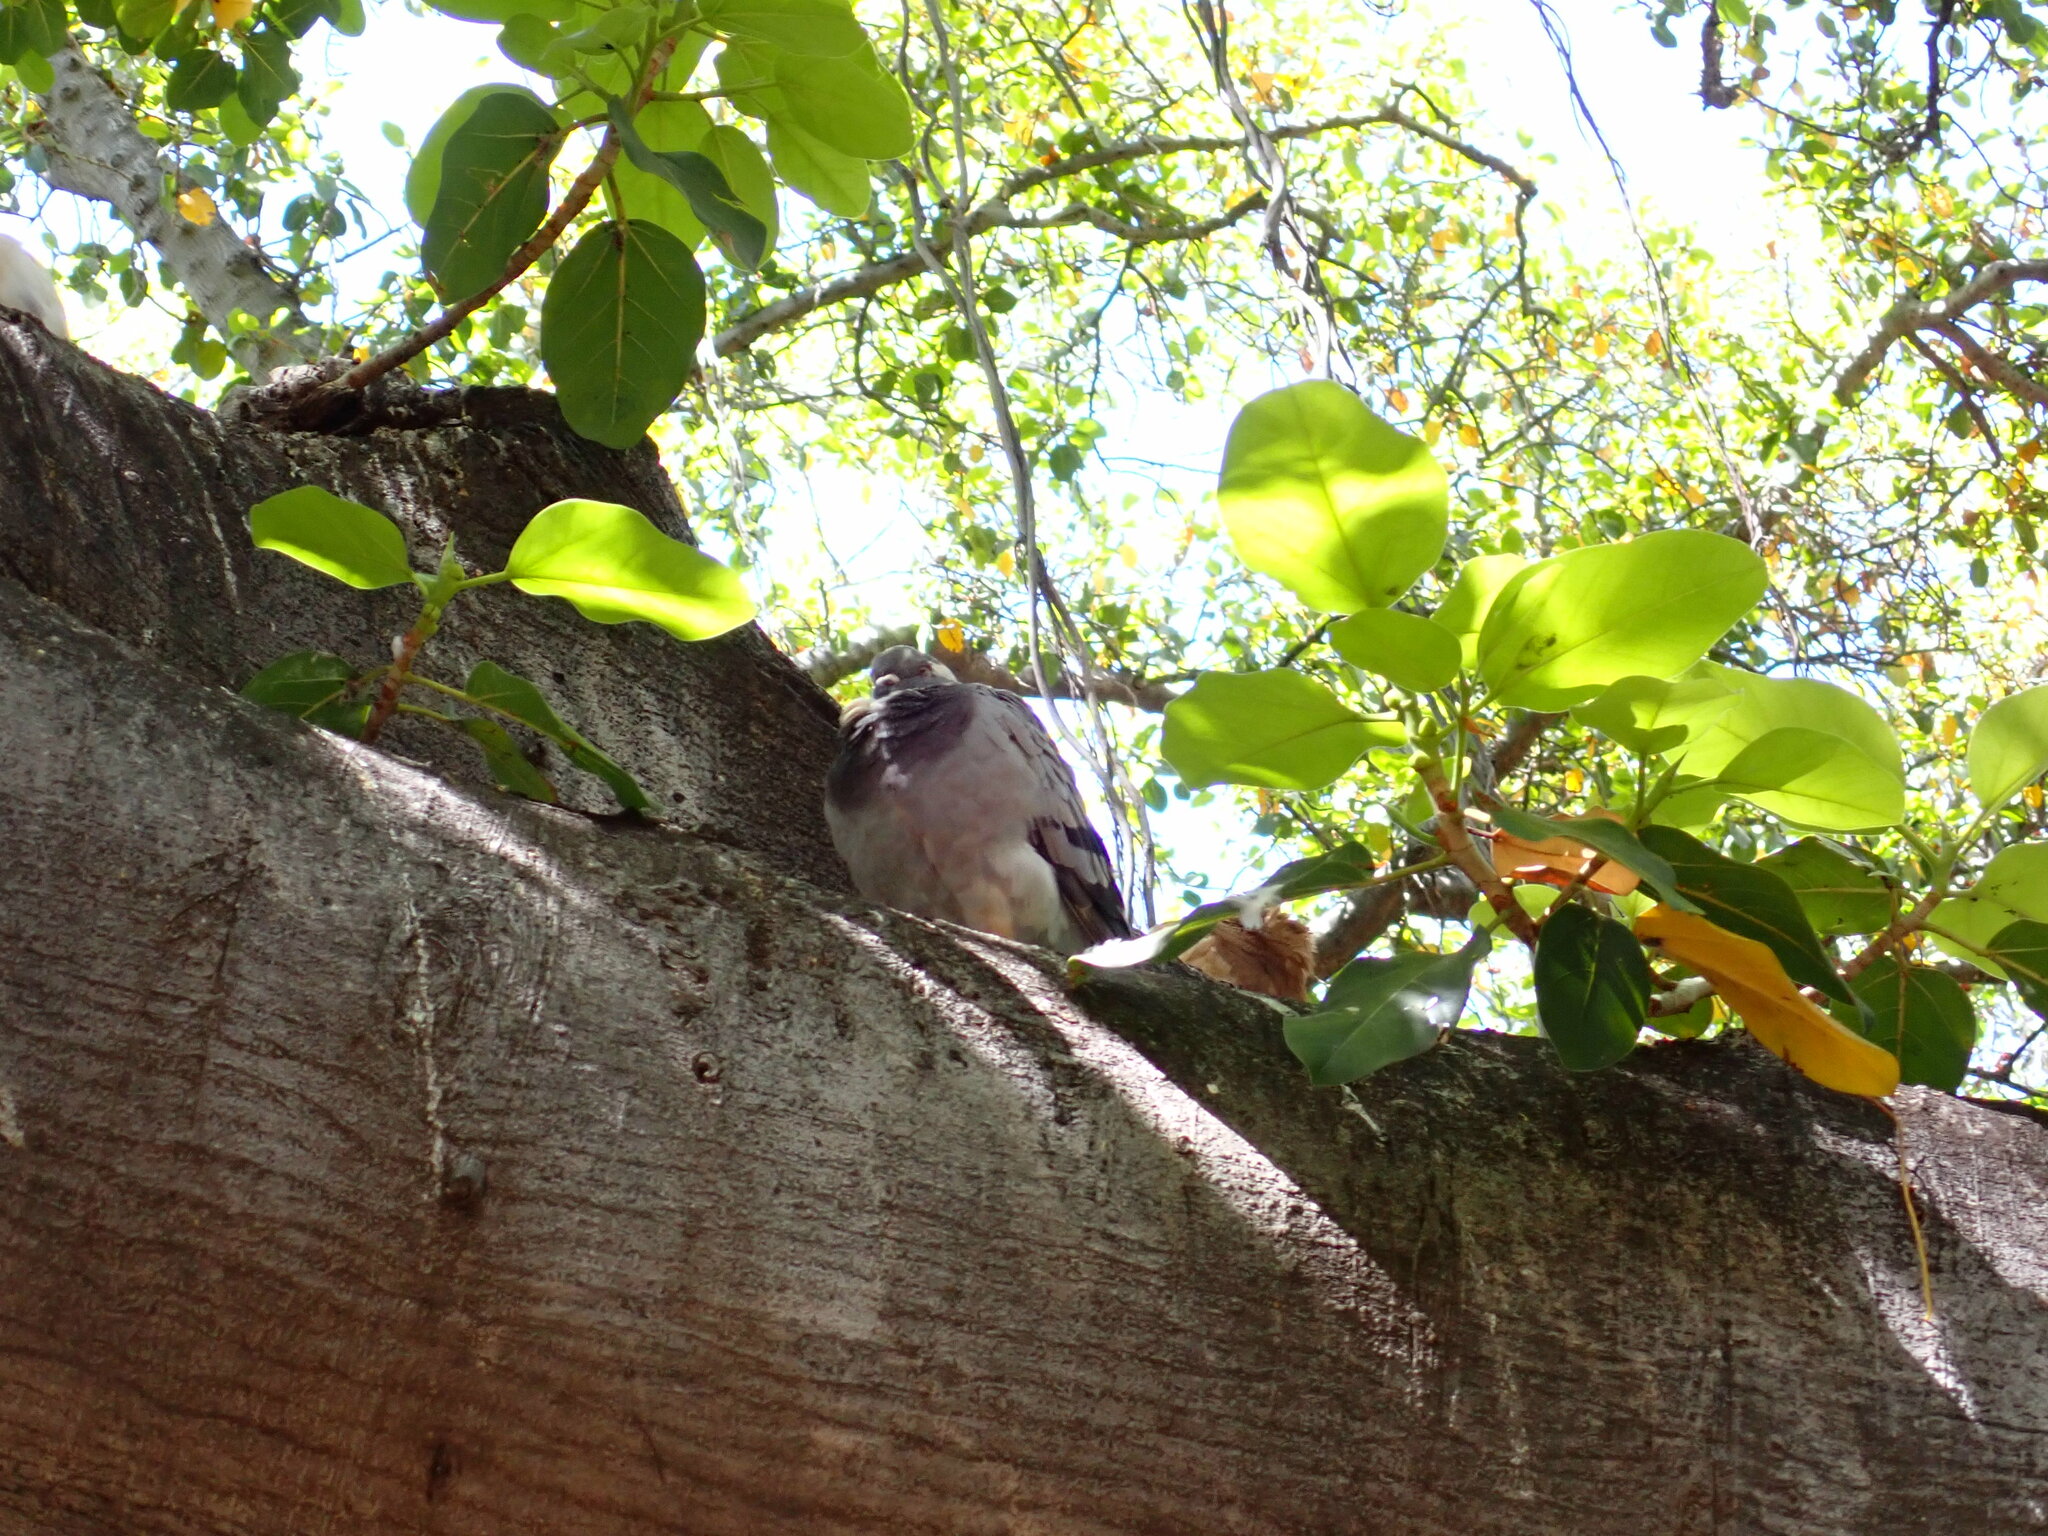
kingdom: Animalia
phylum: Chordata
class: Aves
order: Columbiformes
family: Columbidae
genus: Columba
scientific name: Columba livia
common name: Rock pigeon
